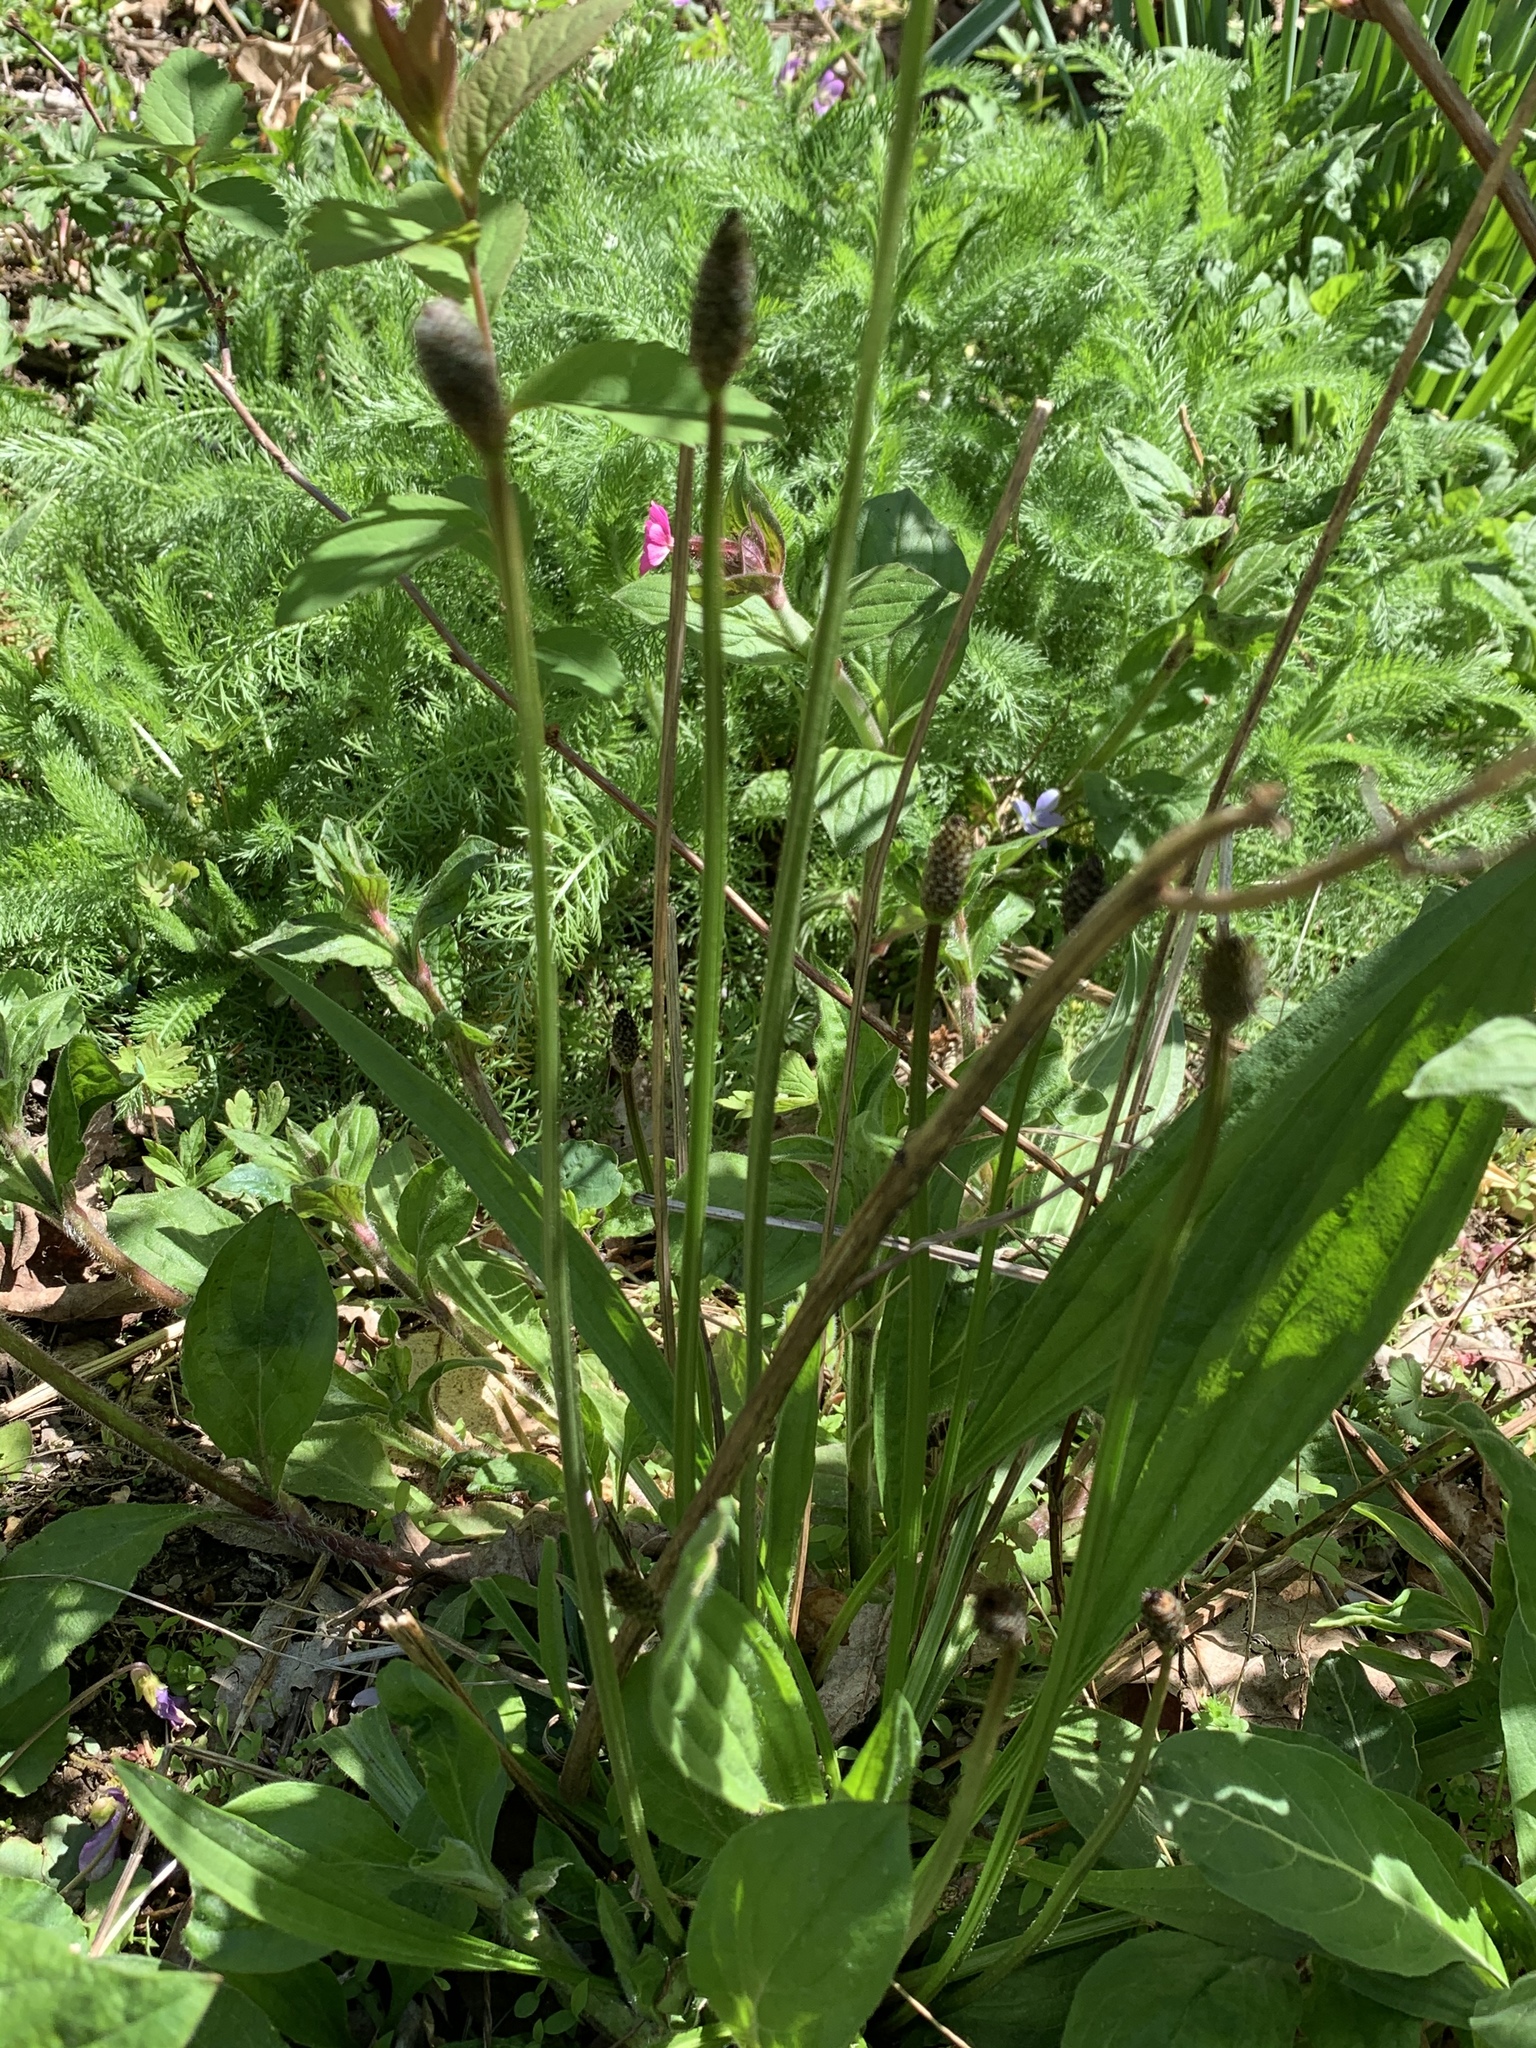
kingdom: Plantae
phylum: Tracheophyta
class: Magnoliopsida
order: Lamiales
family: Plantaginaceae
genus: Plantago
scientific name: Plantago lanceolata
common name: Ribwort plantain
